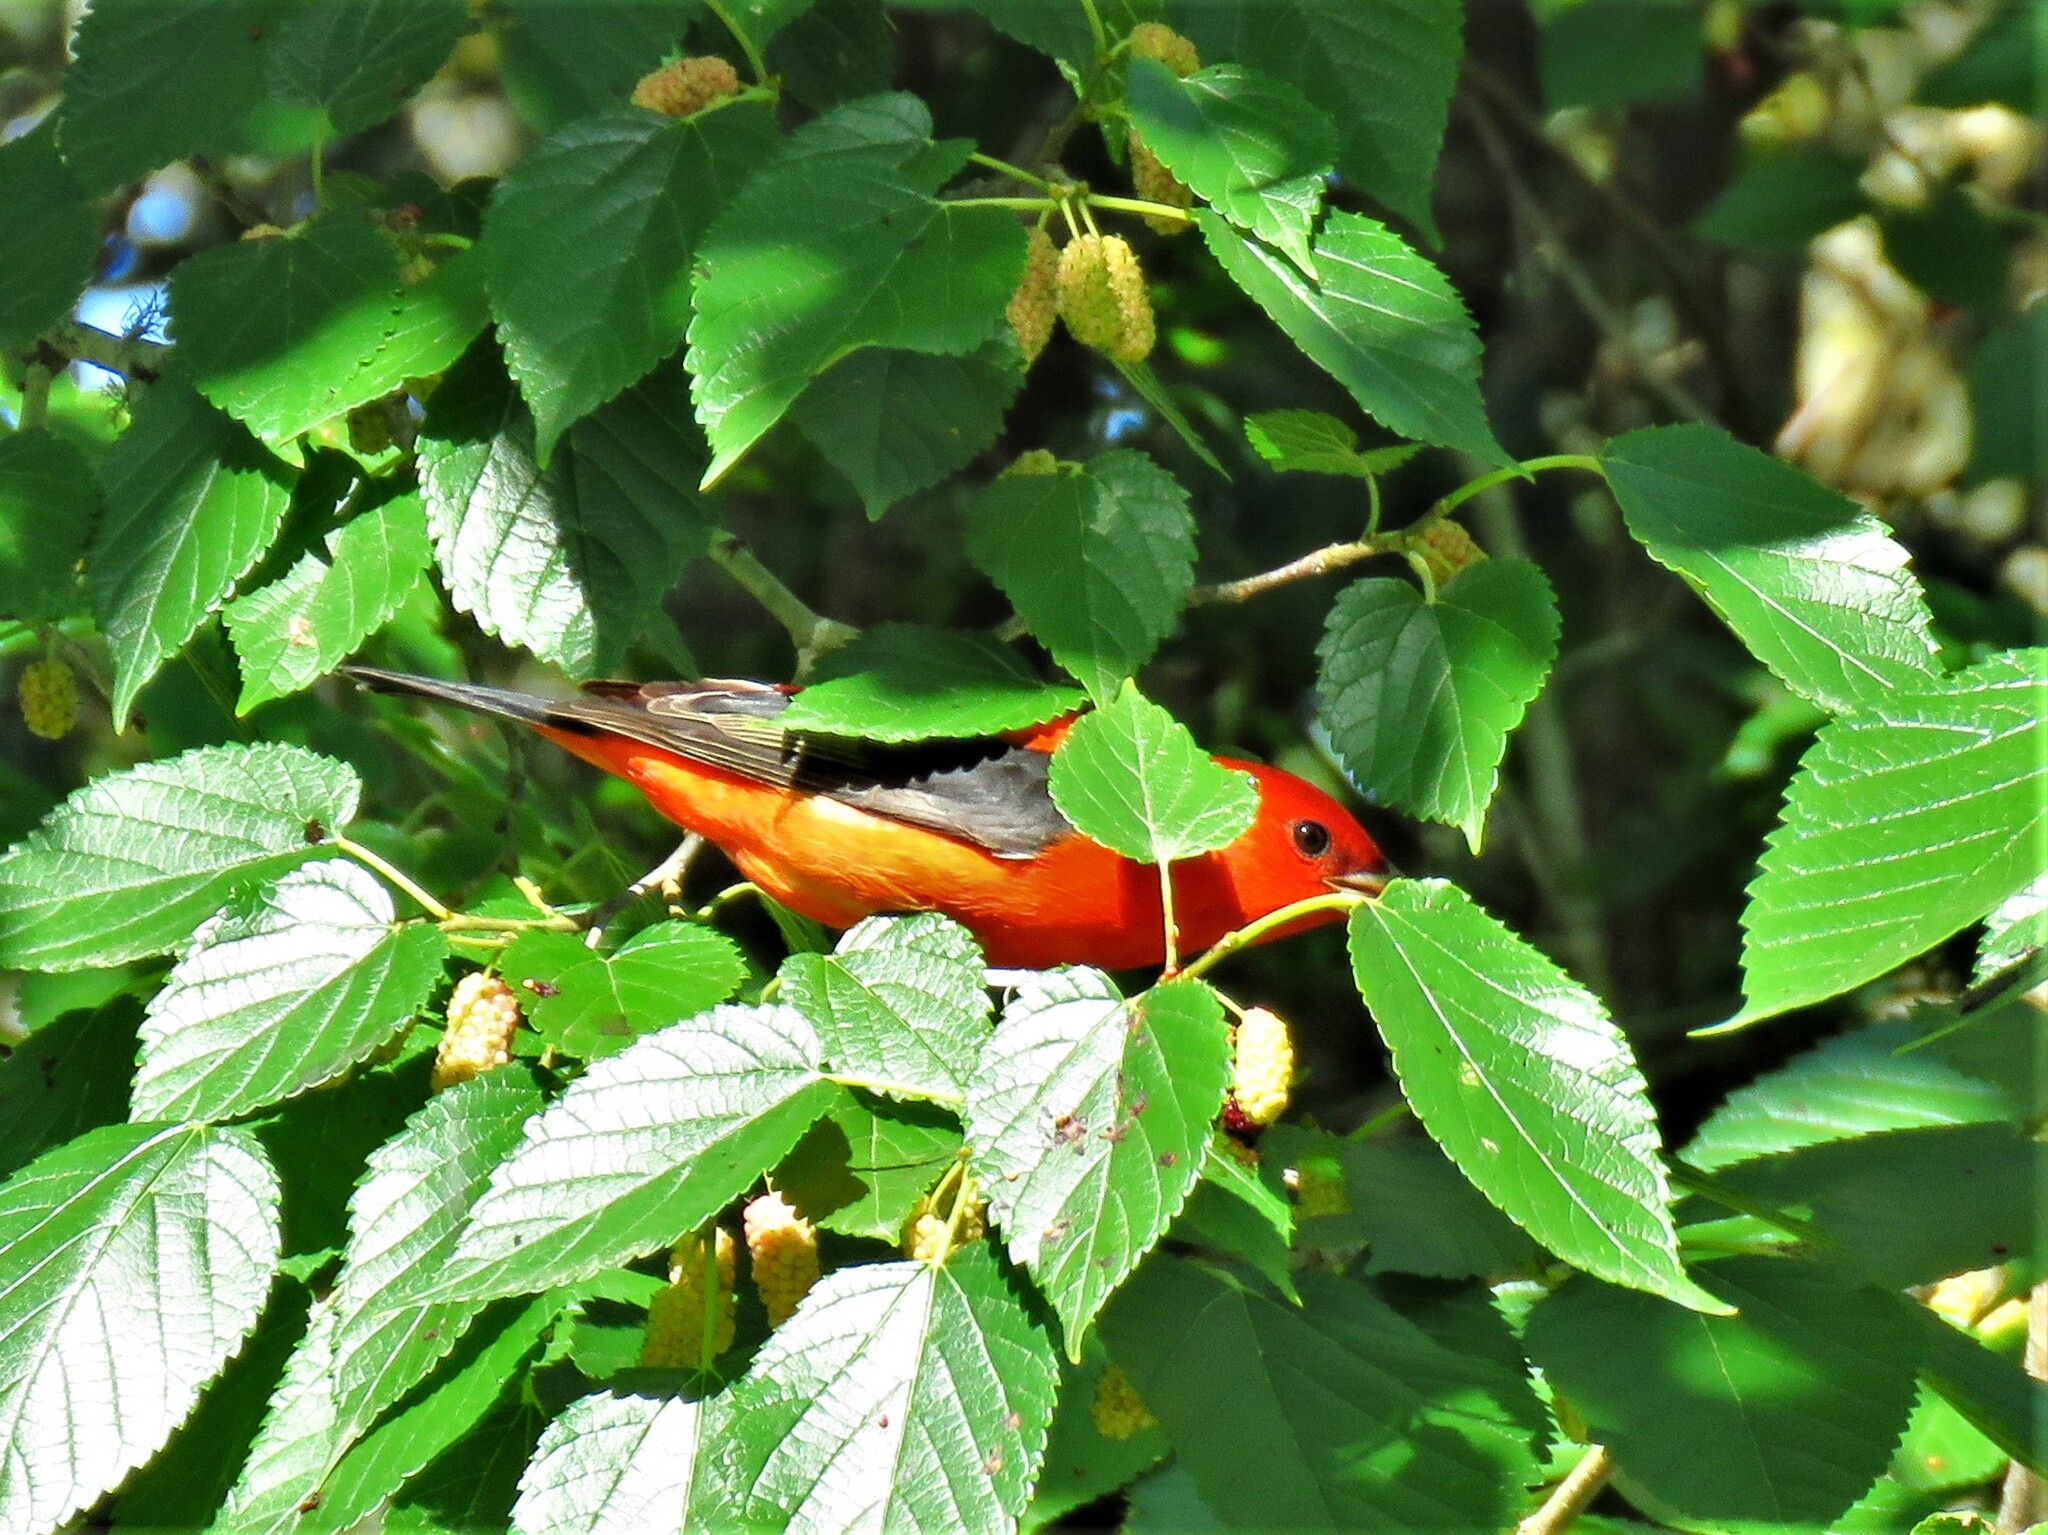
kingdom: Animalia
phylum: Chordata
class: Aves
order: Passeriformes
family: Cardinalidae
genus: Piranga
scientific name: Piranga olivacea
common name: Scarlet tanager
